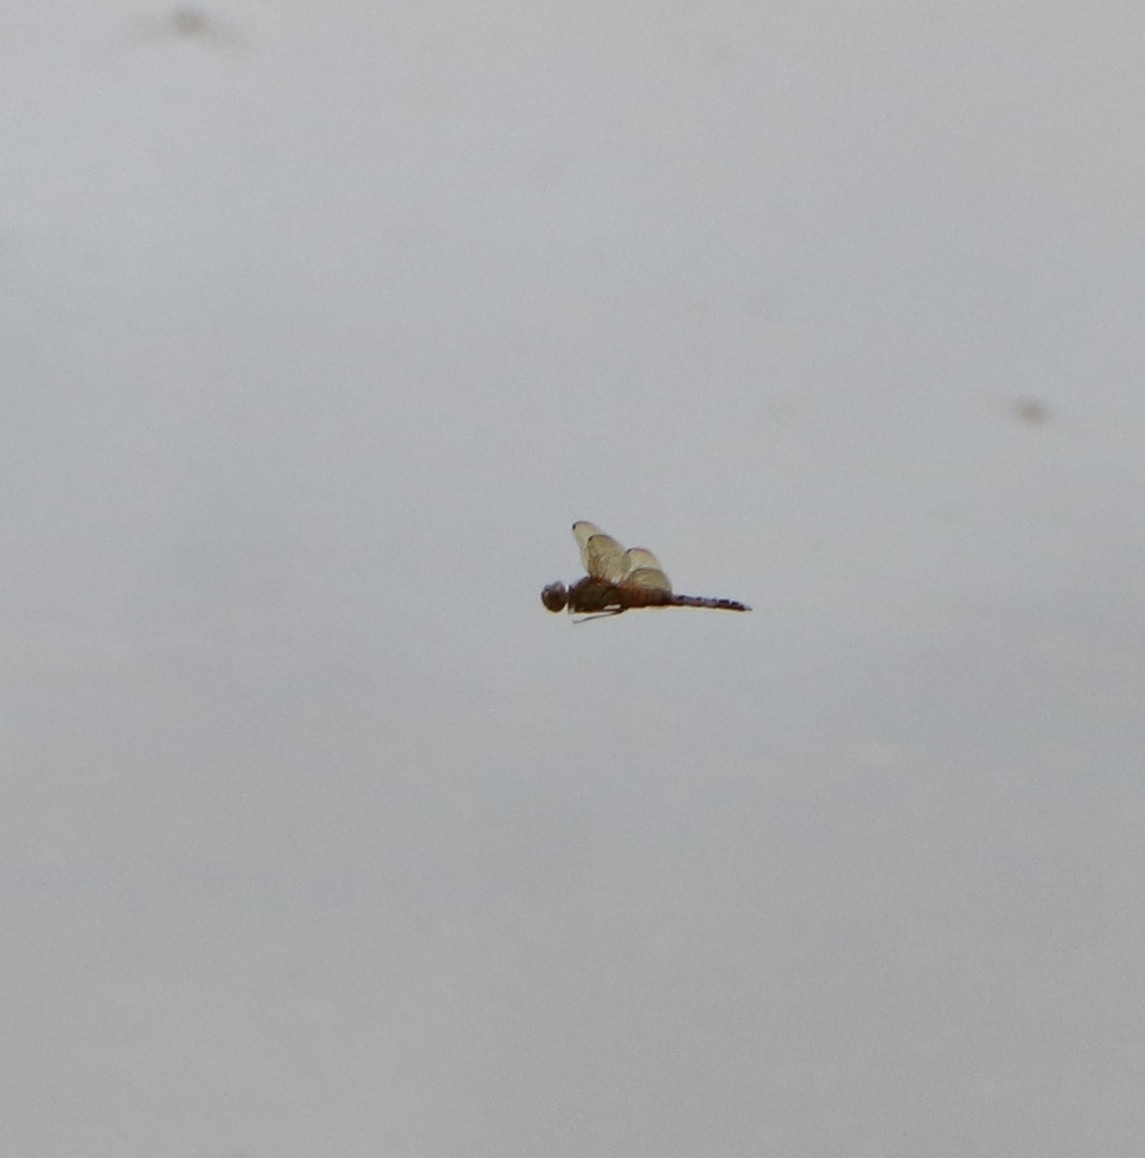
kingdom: Animalia
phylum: Arthropoda
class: Insecta
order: Odonata
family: Libellulidae
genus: Hydrobasileus
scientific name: Hydrobasileus croceus
